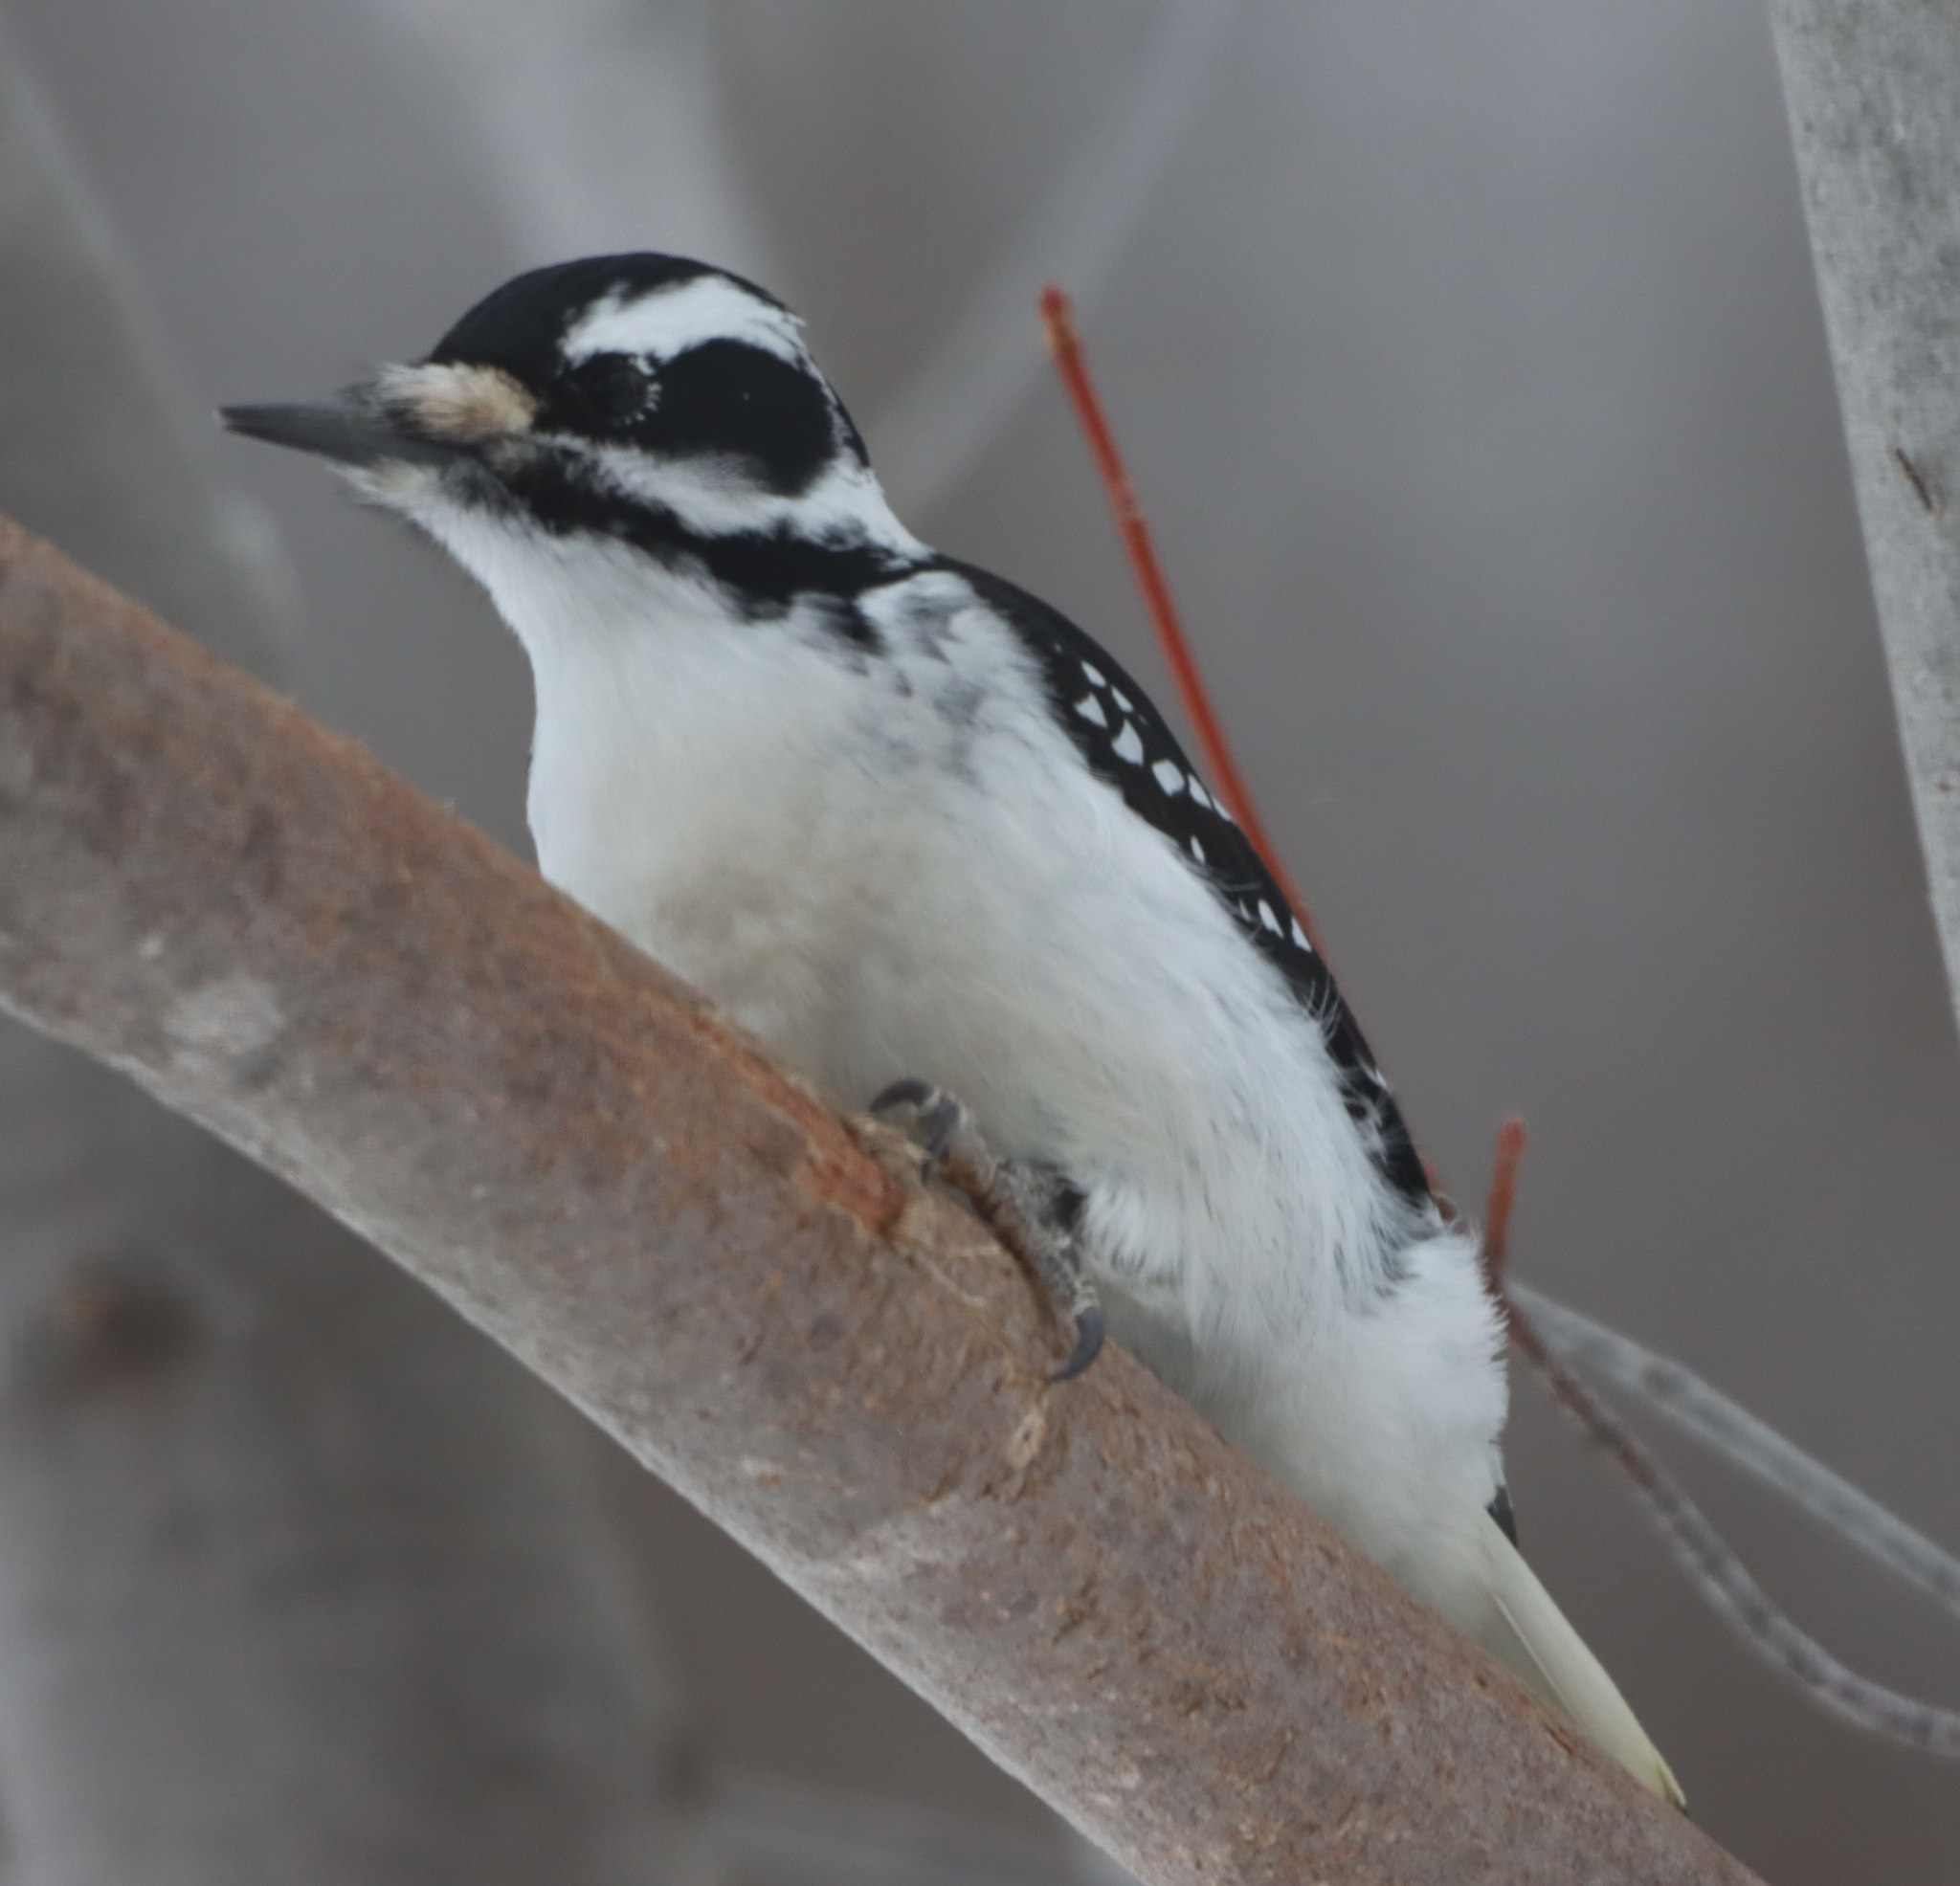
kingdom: Animalia
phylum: Chordata
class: Aves
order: Piciformes
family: Picidae
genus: Dryobates
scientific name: Dryobates pubescens
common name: Downy woodpecker
